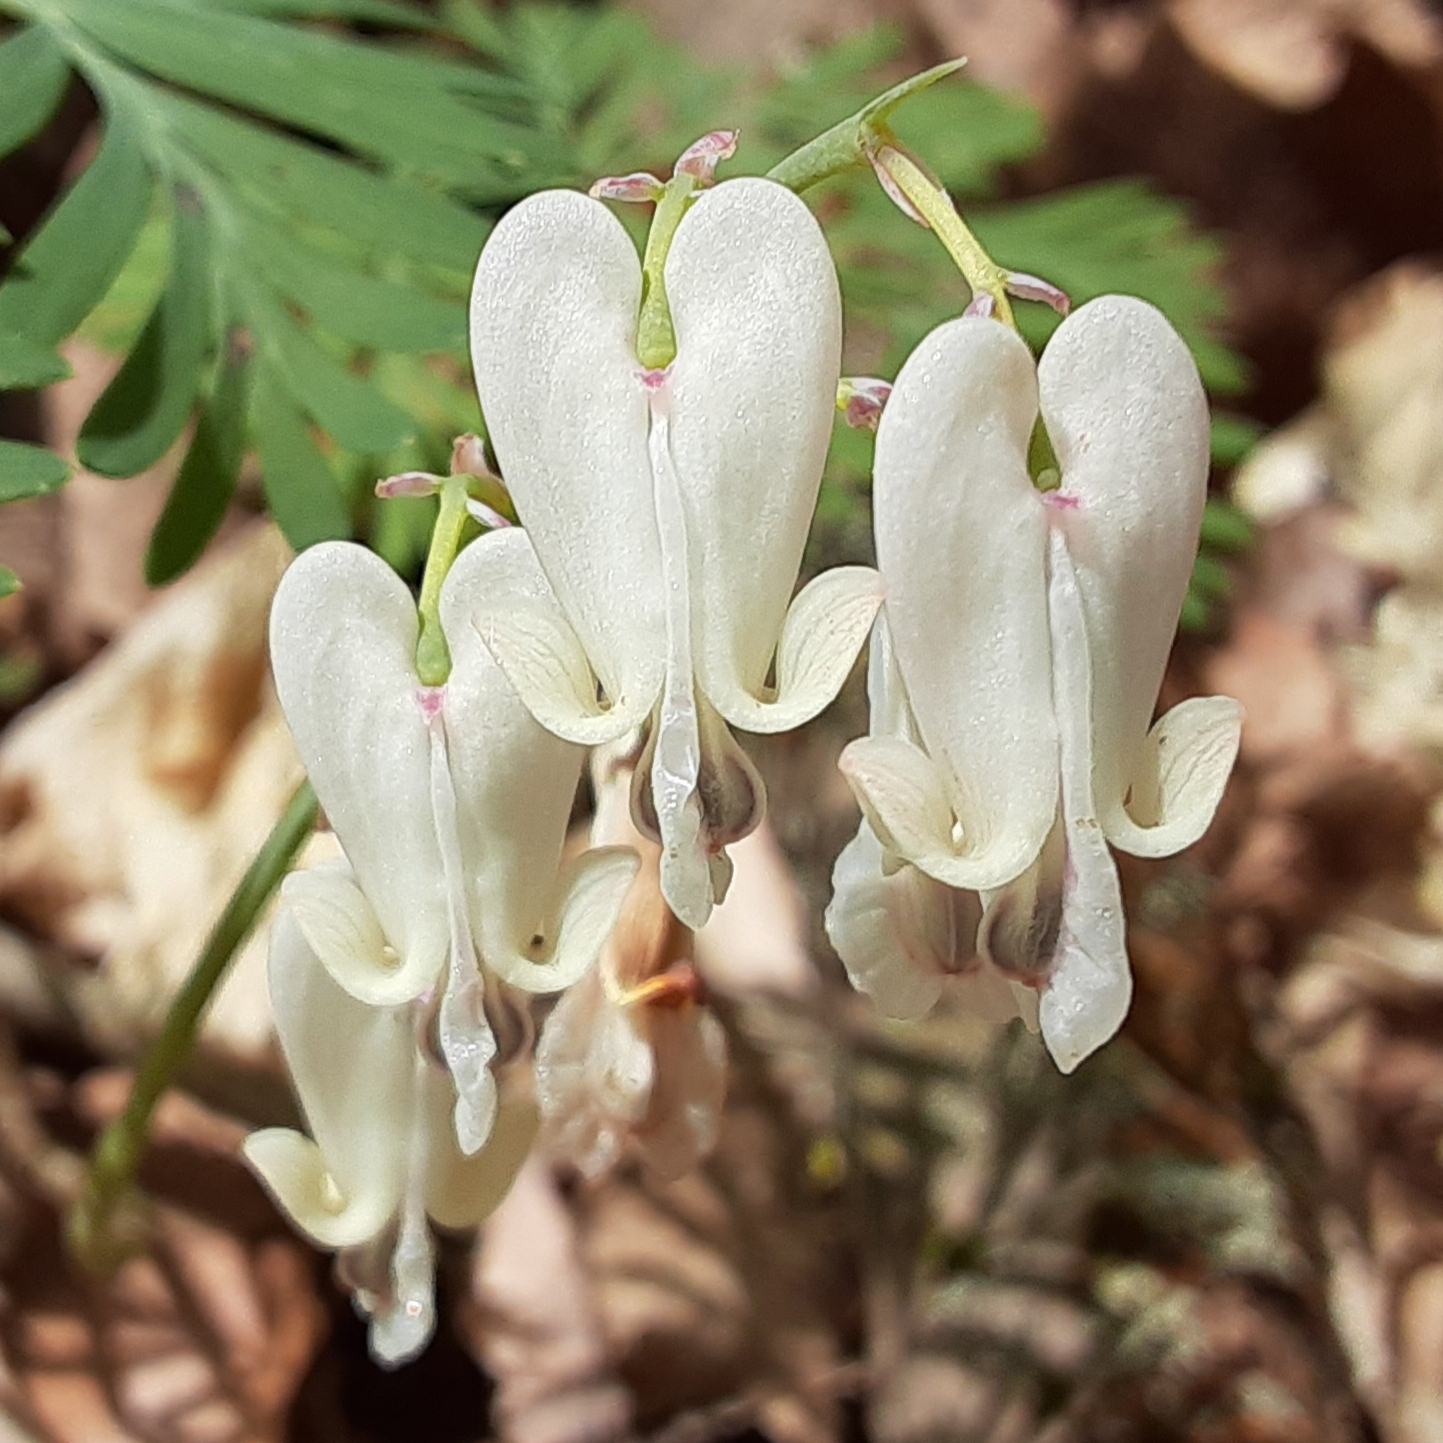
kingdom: Plantae
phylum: Tracheophyta
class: Magnoliopsida
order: Ranunculales
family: Papaveraceae
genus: Dicentra
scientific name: Dicentra canadensis
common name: Squirrel-corn
